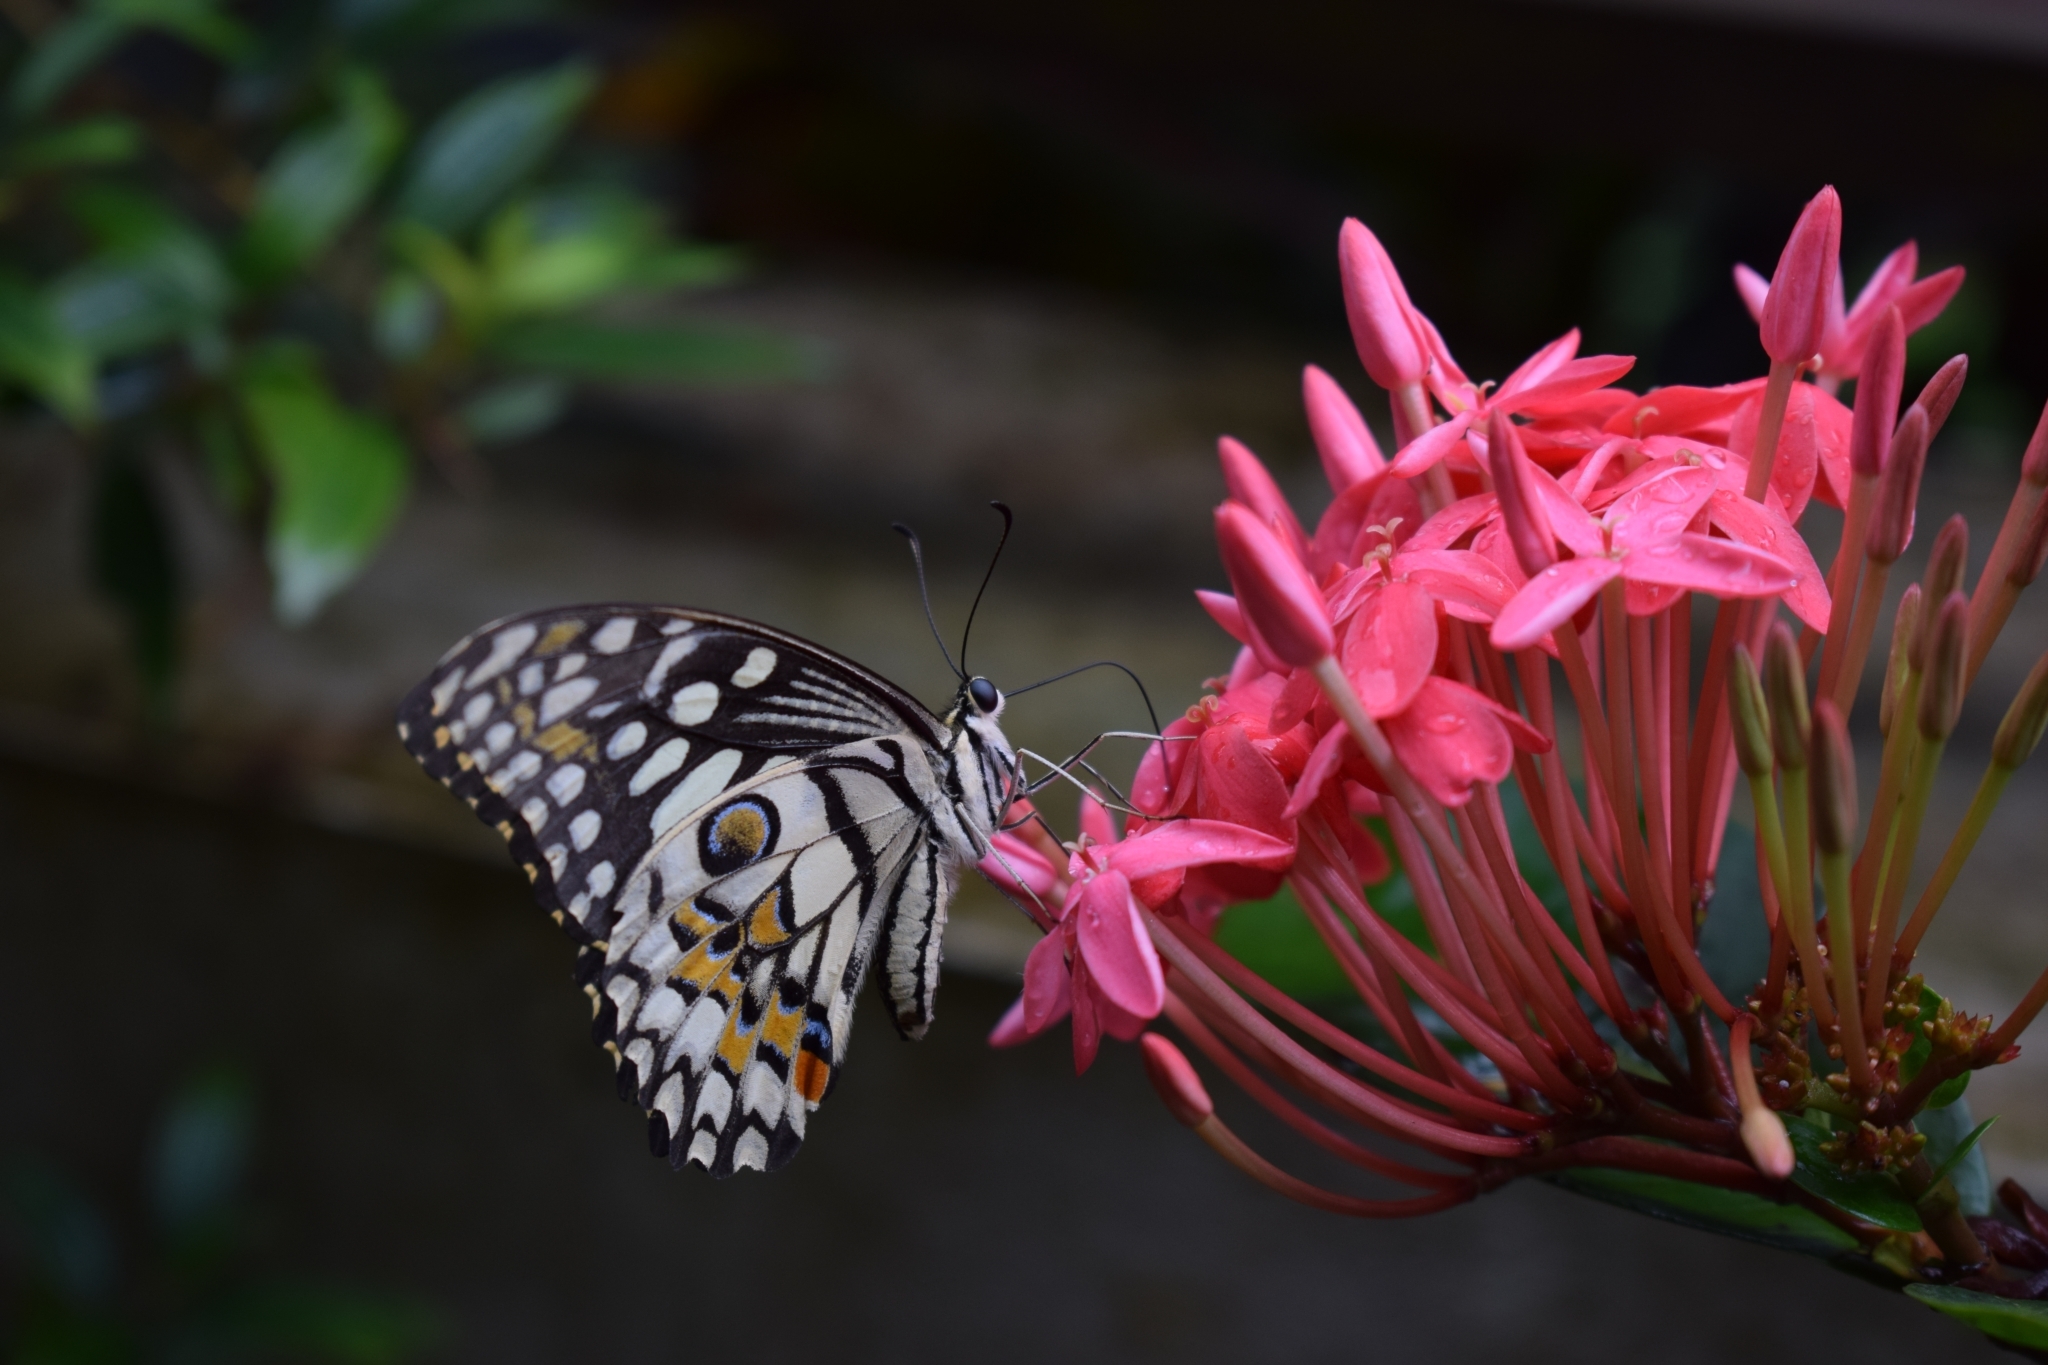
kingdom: Animalia
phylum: Arthropoda
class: Insecta
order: Lepidoptera
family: Papilionidae
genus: Papilio
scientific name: Papilio demoleus
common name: Lime butterfly
